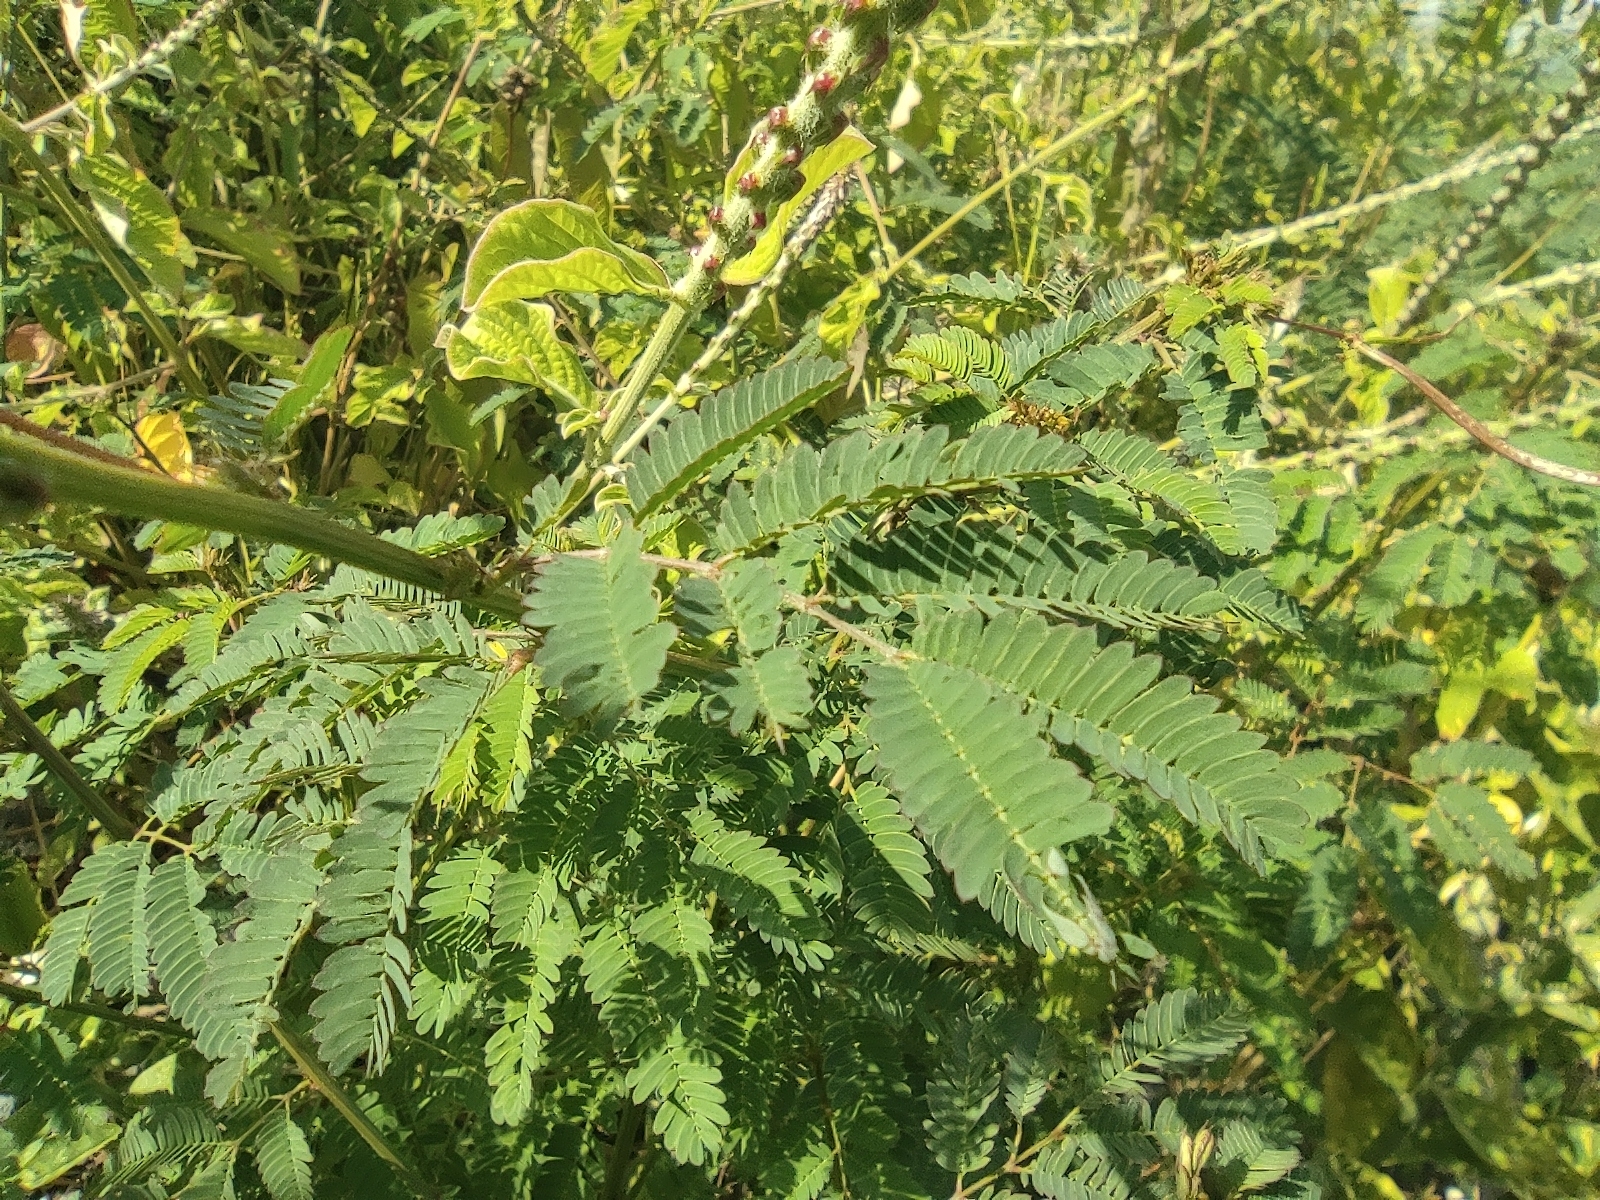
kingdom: Plantae
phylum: Tracheophyta
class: Magnoliopsida
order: Fabales
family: Fabaceae
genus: Desmanthus
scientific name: Desmanthus virgatus
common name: Wild tantan
